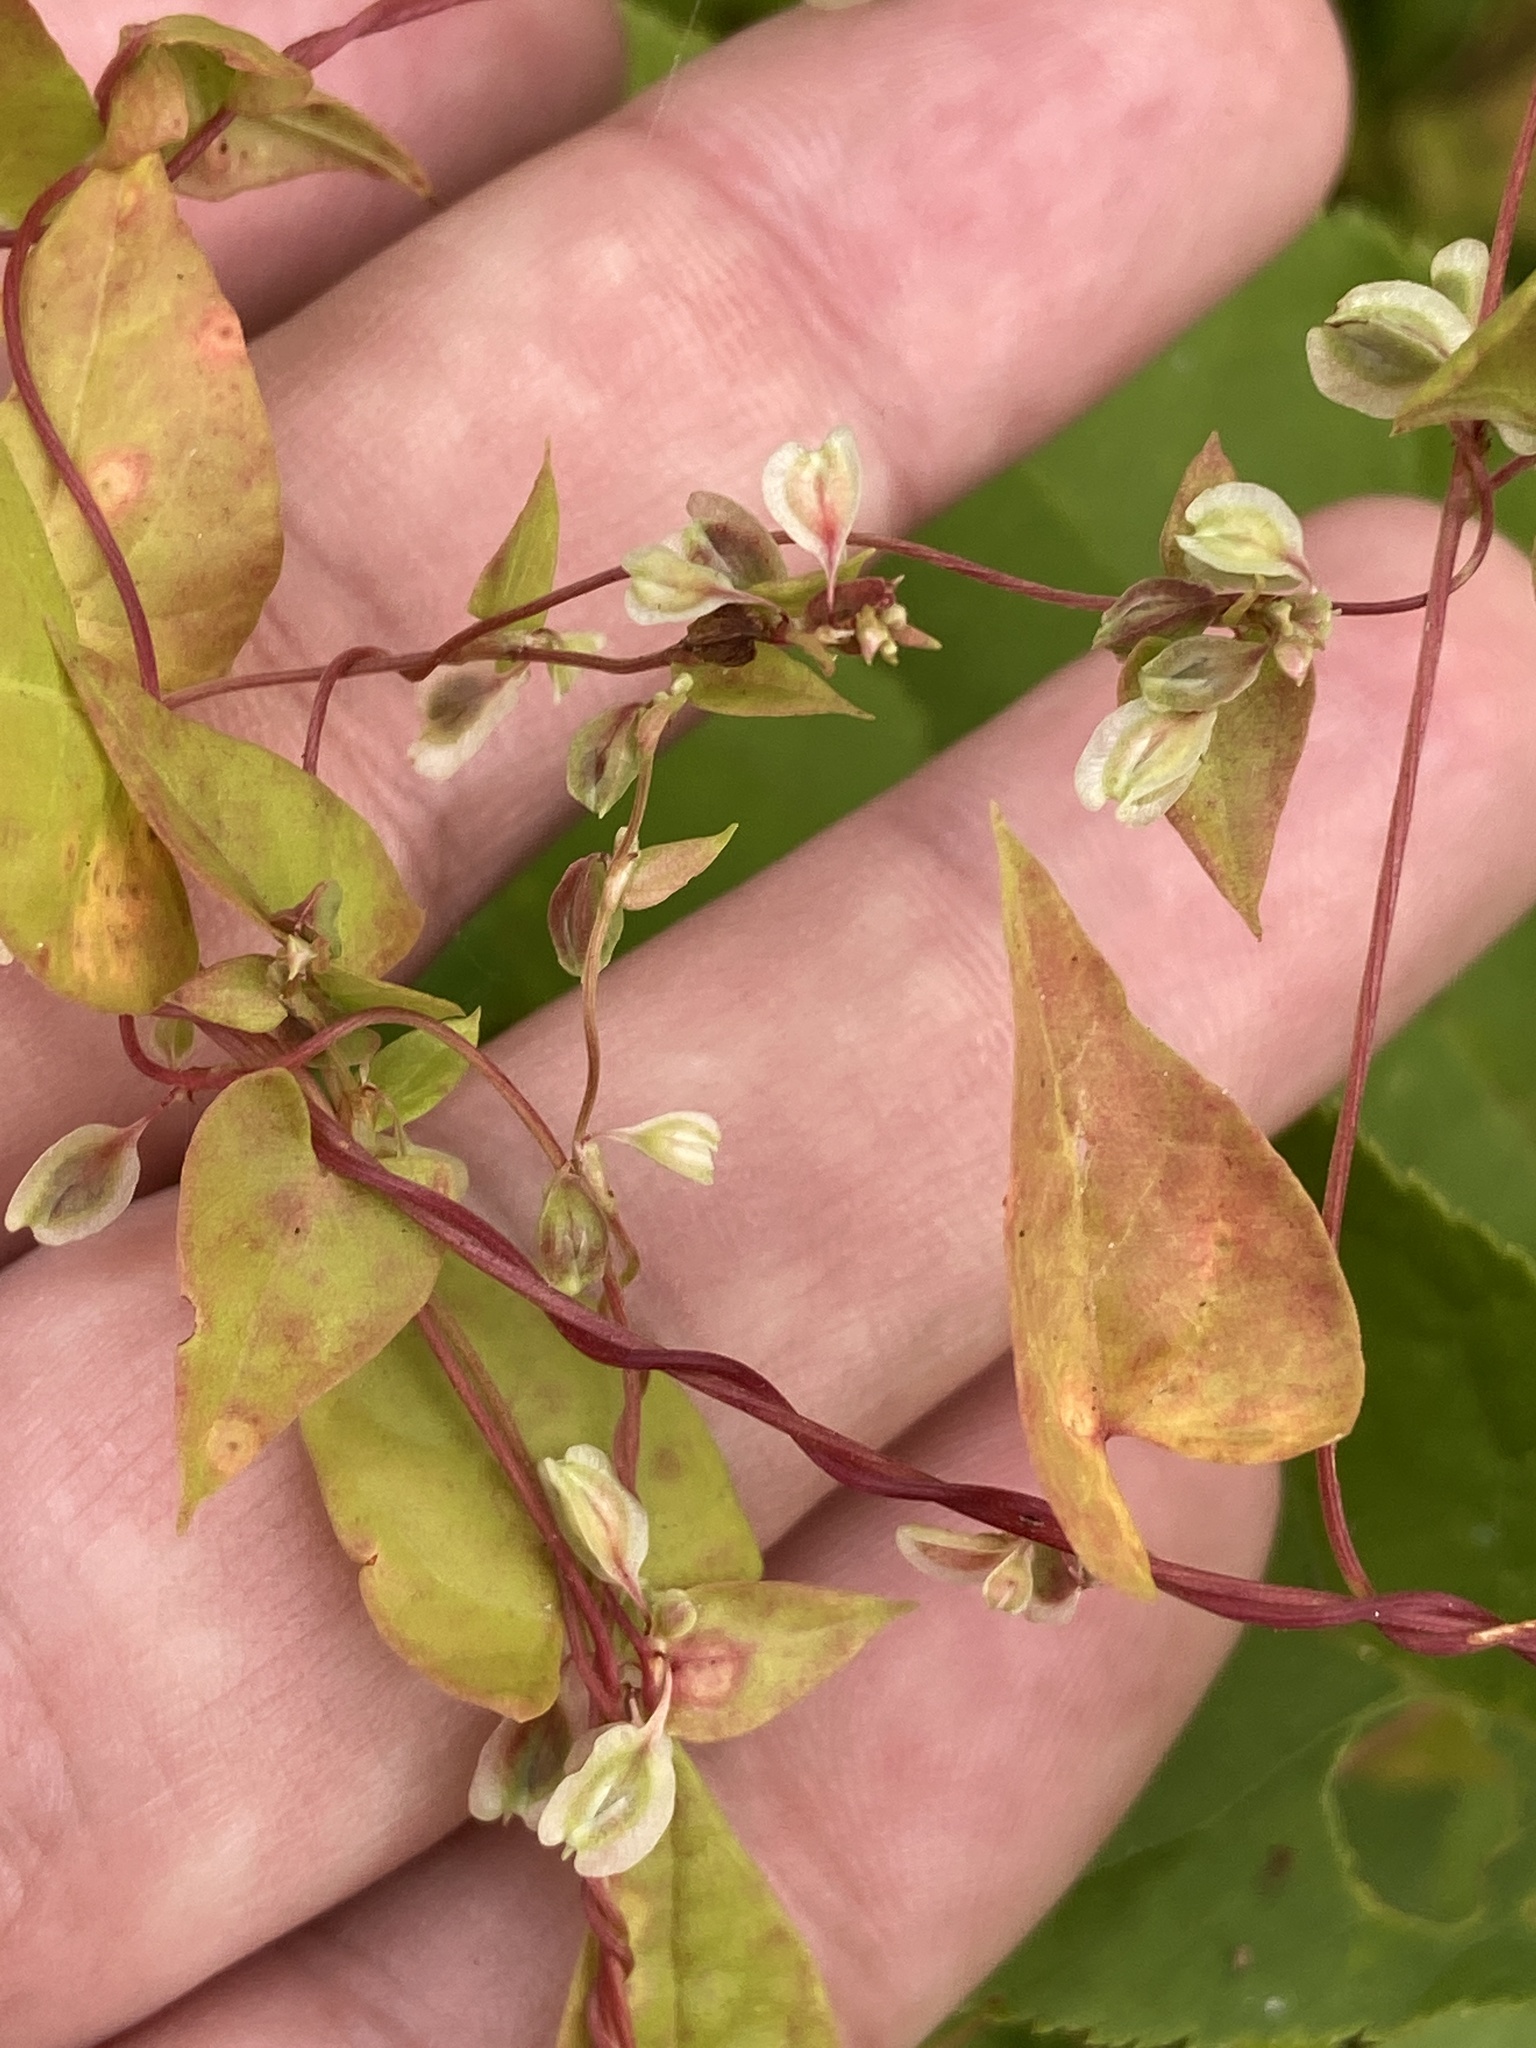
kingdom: Plantae
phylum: Tracheophyta
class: Magnoliopsida
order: Caryophyllales
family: Polygonaceae
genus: Fallopia
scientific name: Fallopia dumetorum
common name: Copse-bindweed
